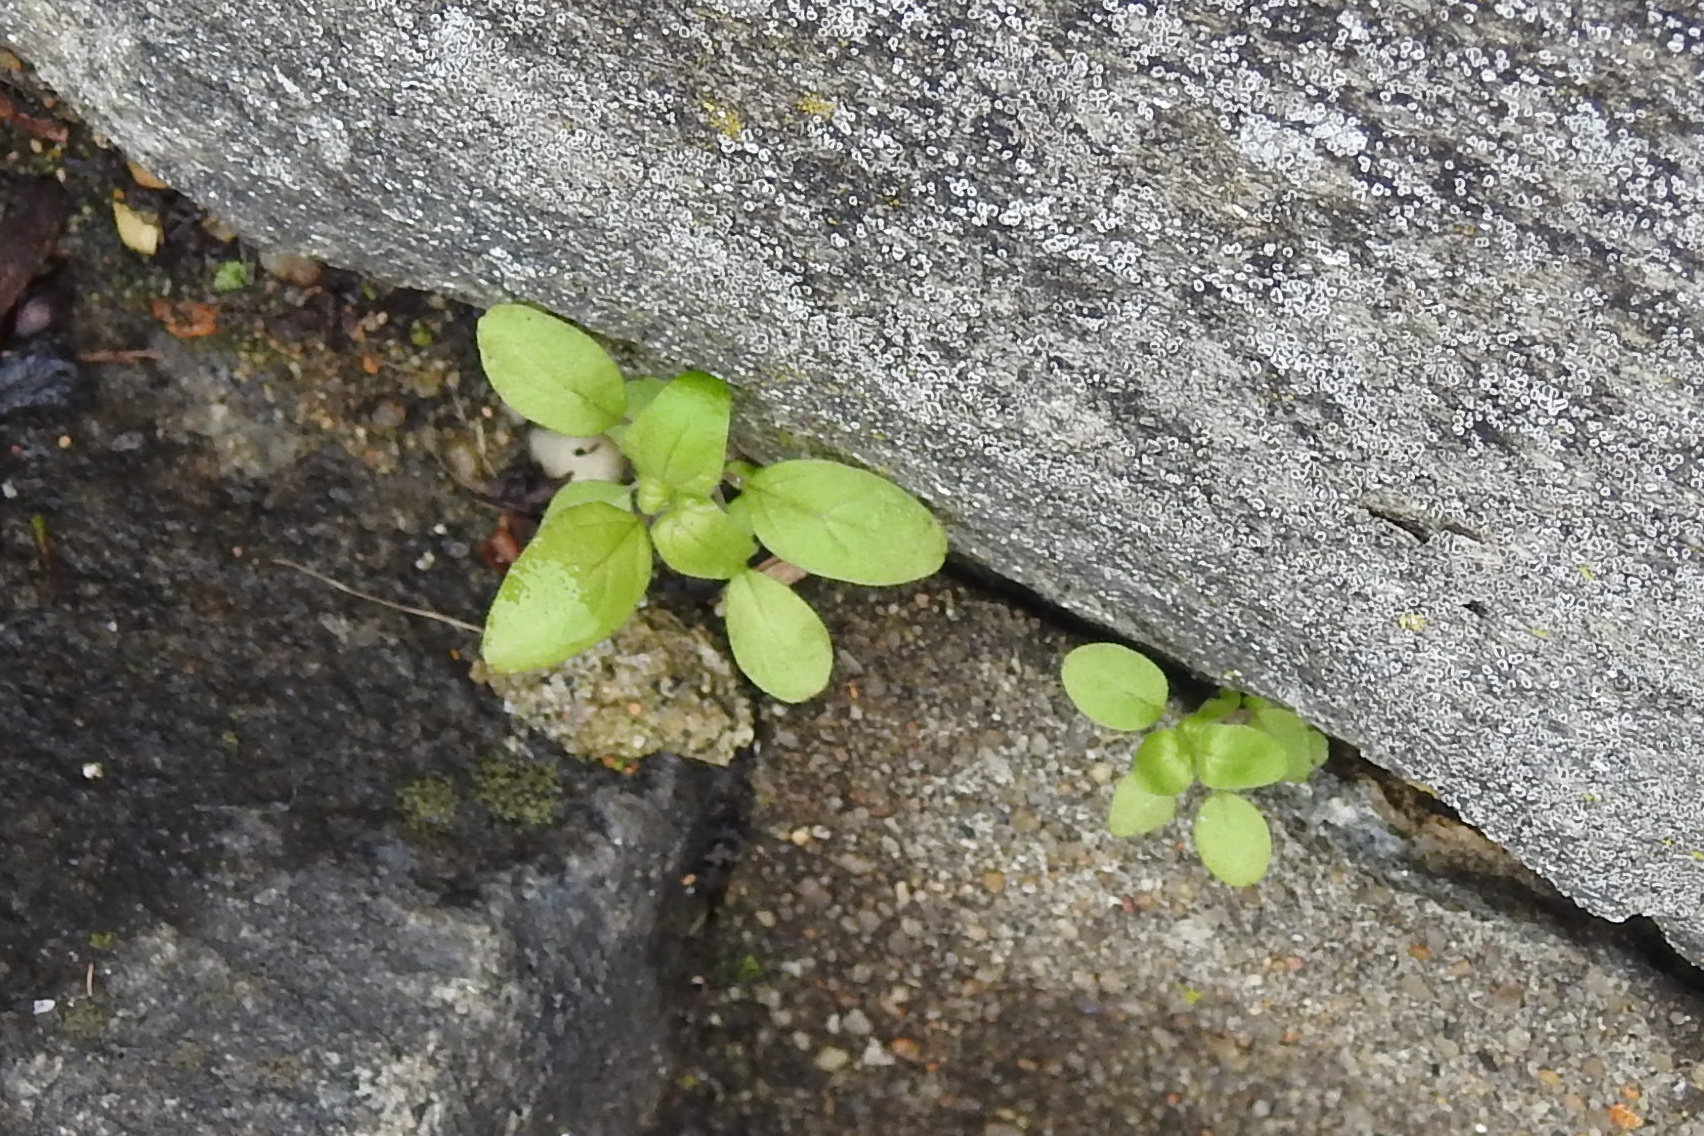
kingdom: Plantae
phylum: Tracheophyta
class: Magnoliopsida
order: Rosales
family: Urticaceae
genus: Parietaria
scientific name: Parietaria pensylvanica
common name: Pennsylvania pellitory
